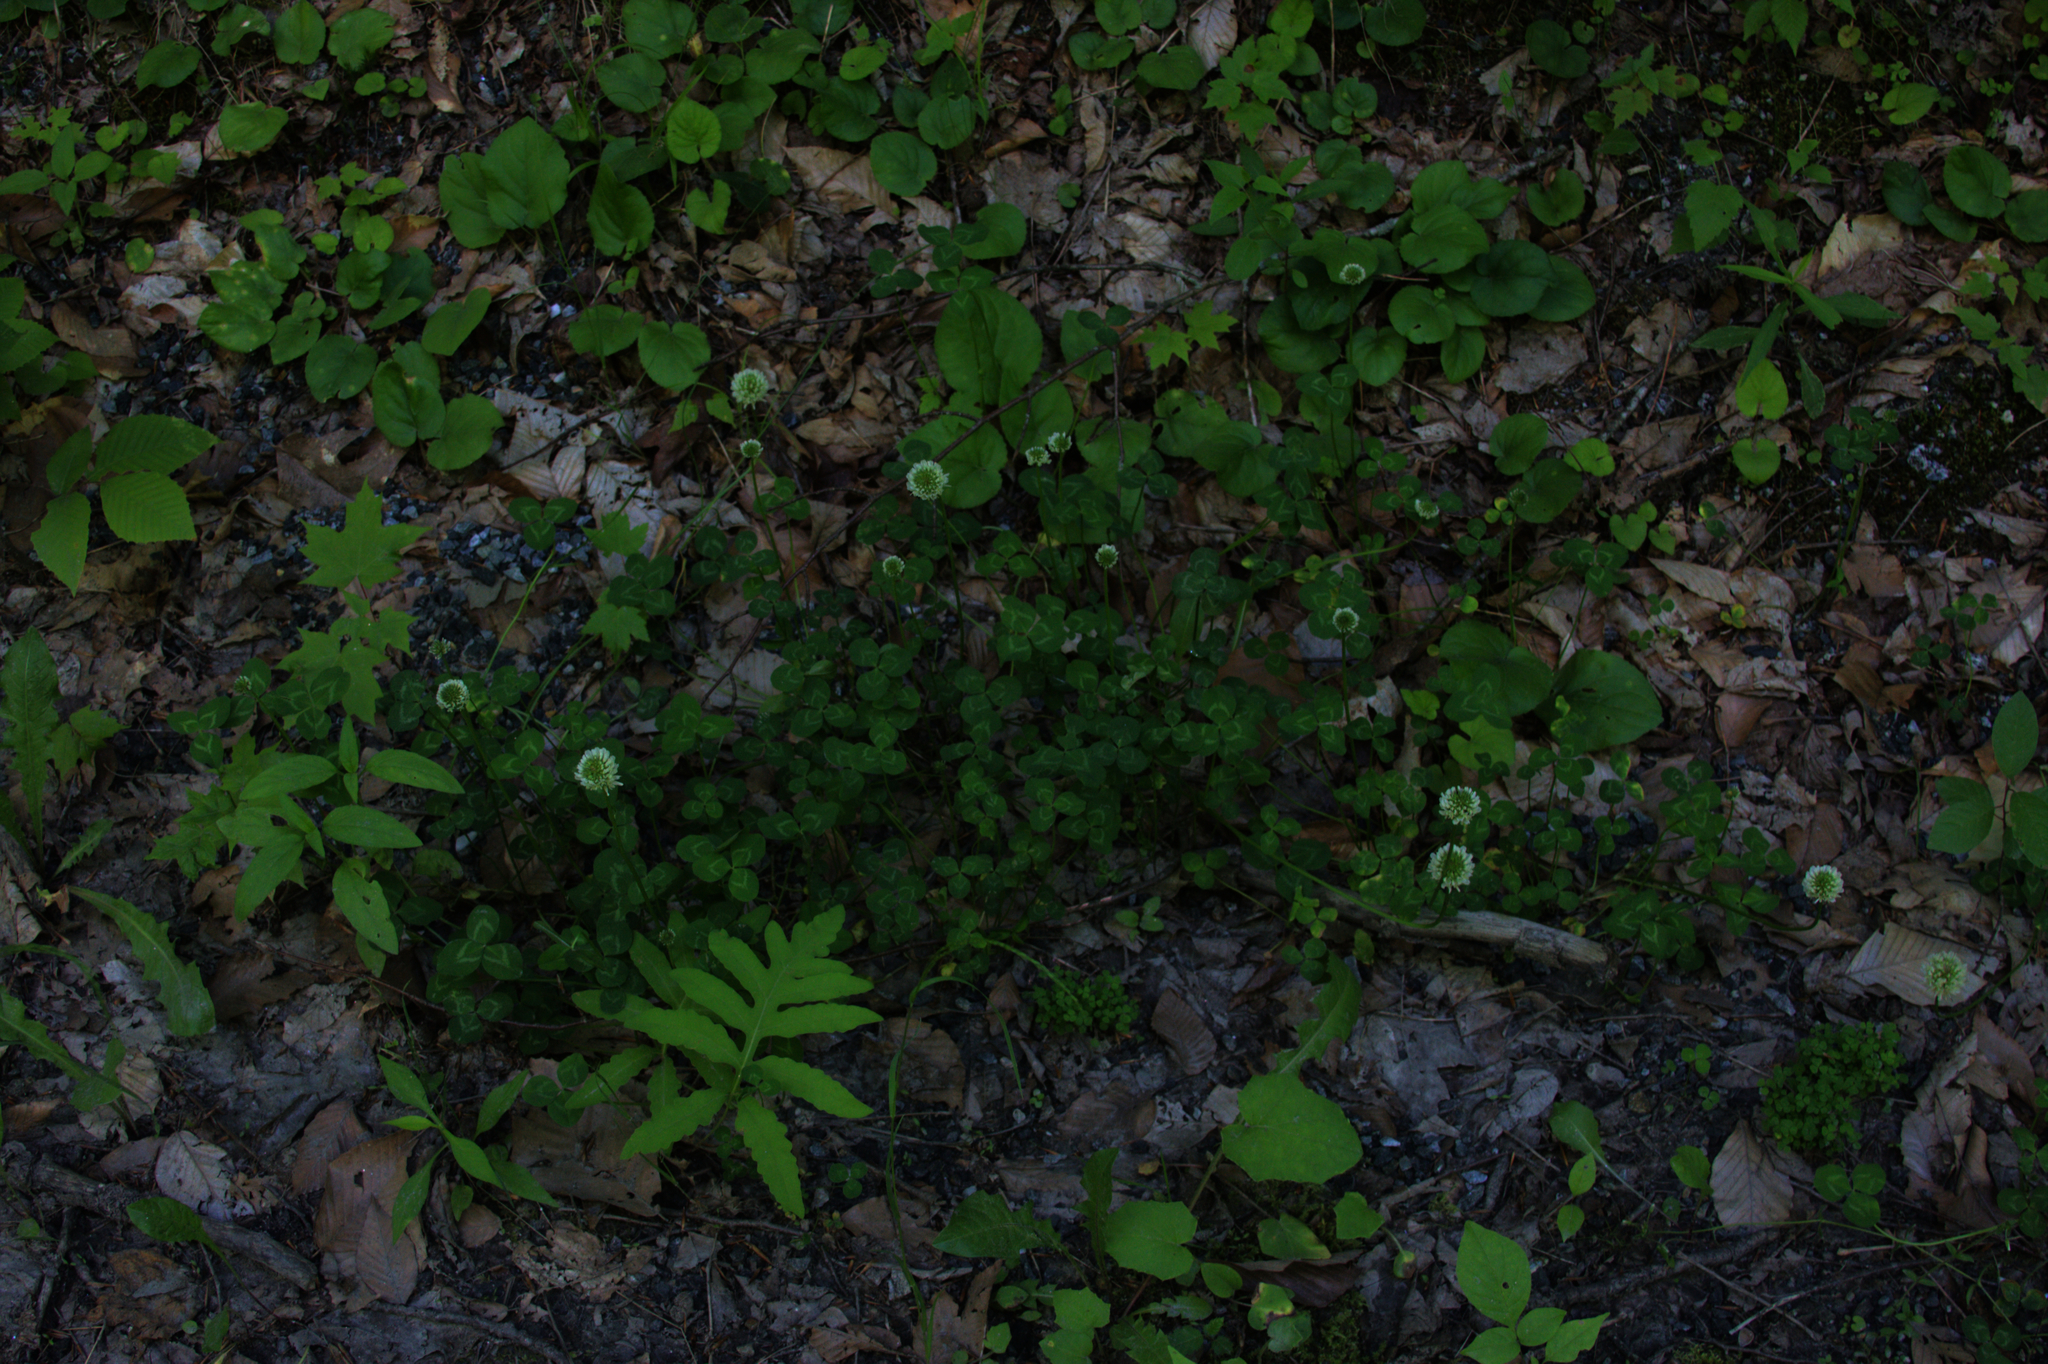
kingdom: Plantae
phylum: Tracheophyta
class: Magnoliopsida
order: Fabales
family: Fabaceae
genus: Trifolium
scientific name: Trifolium repens
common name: White clover
